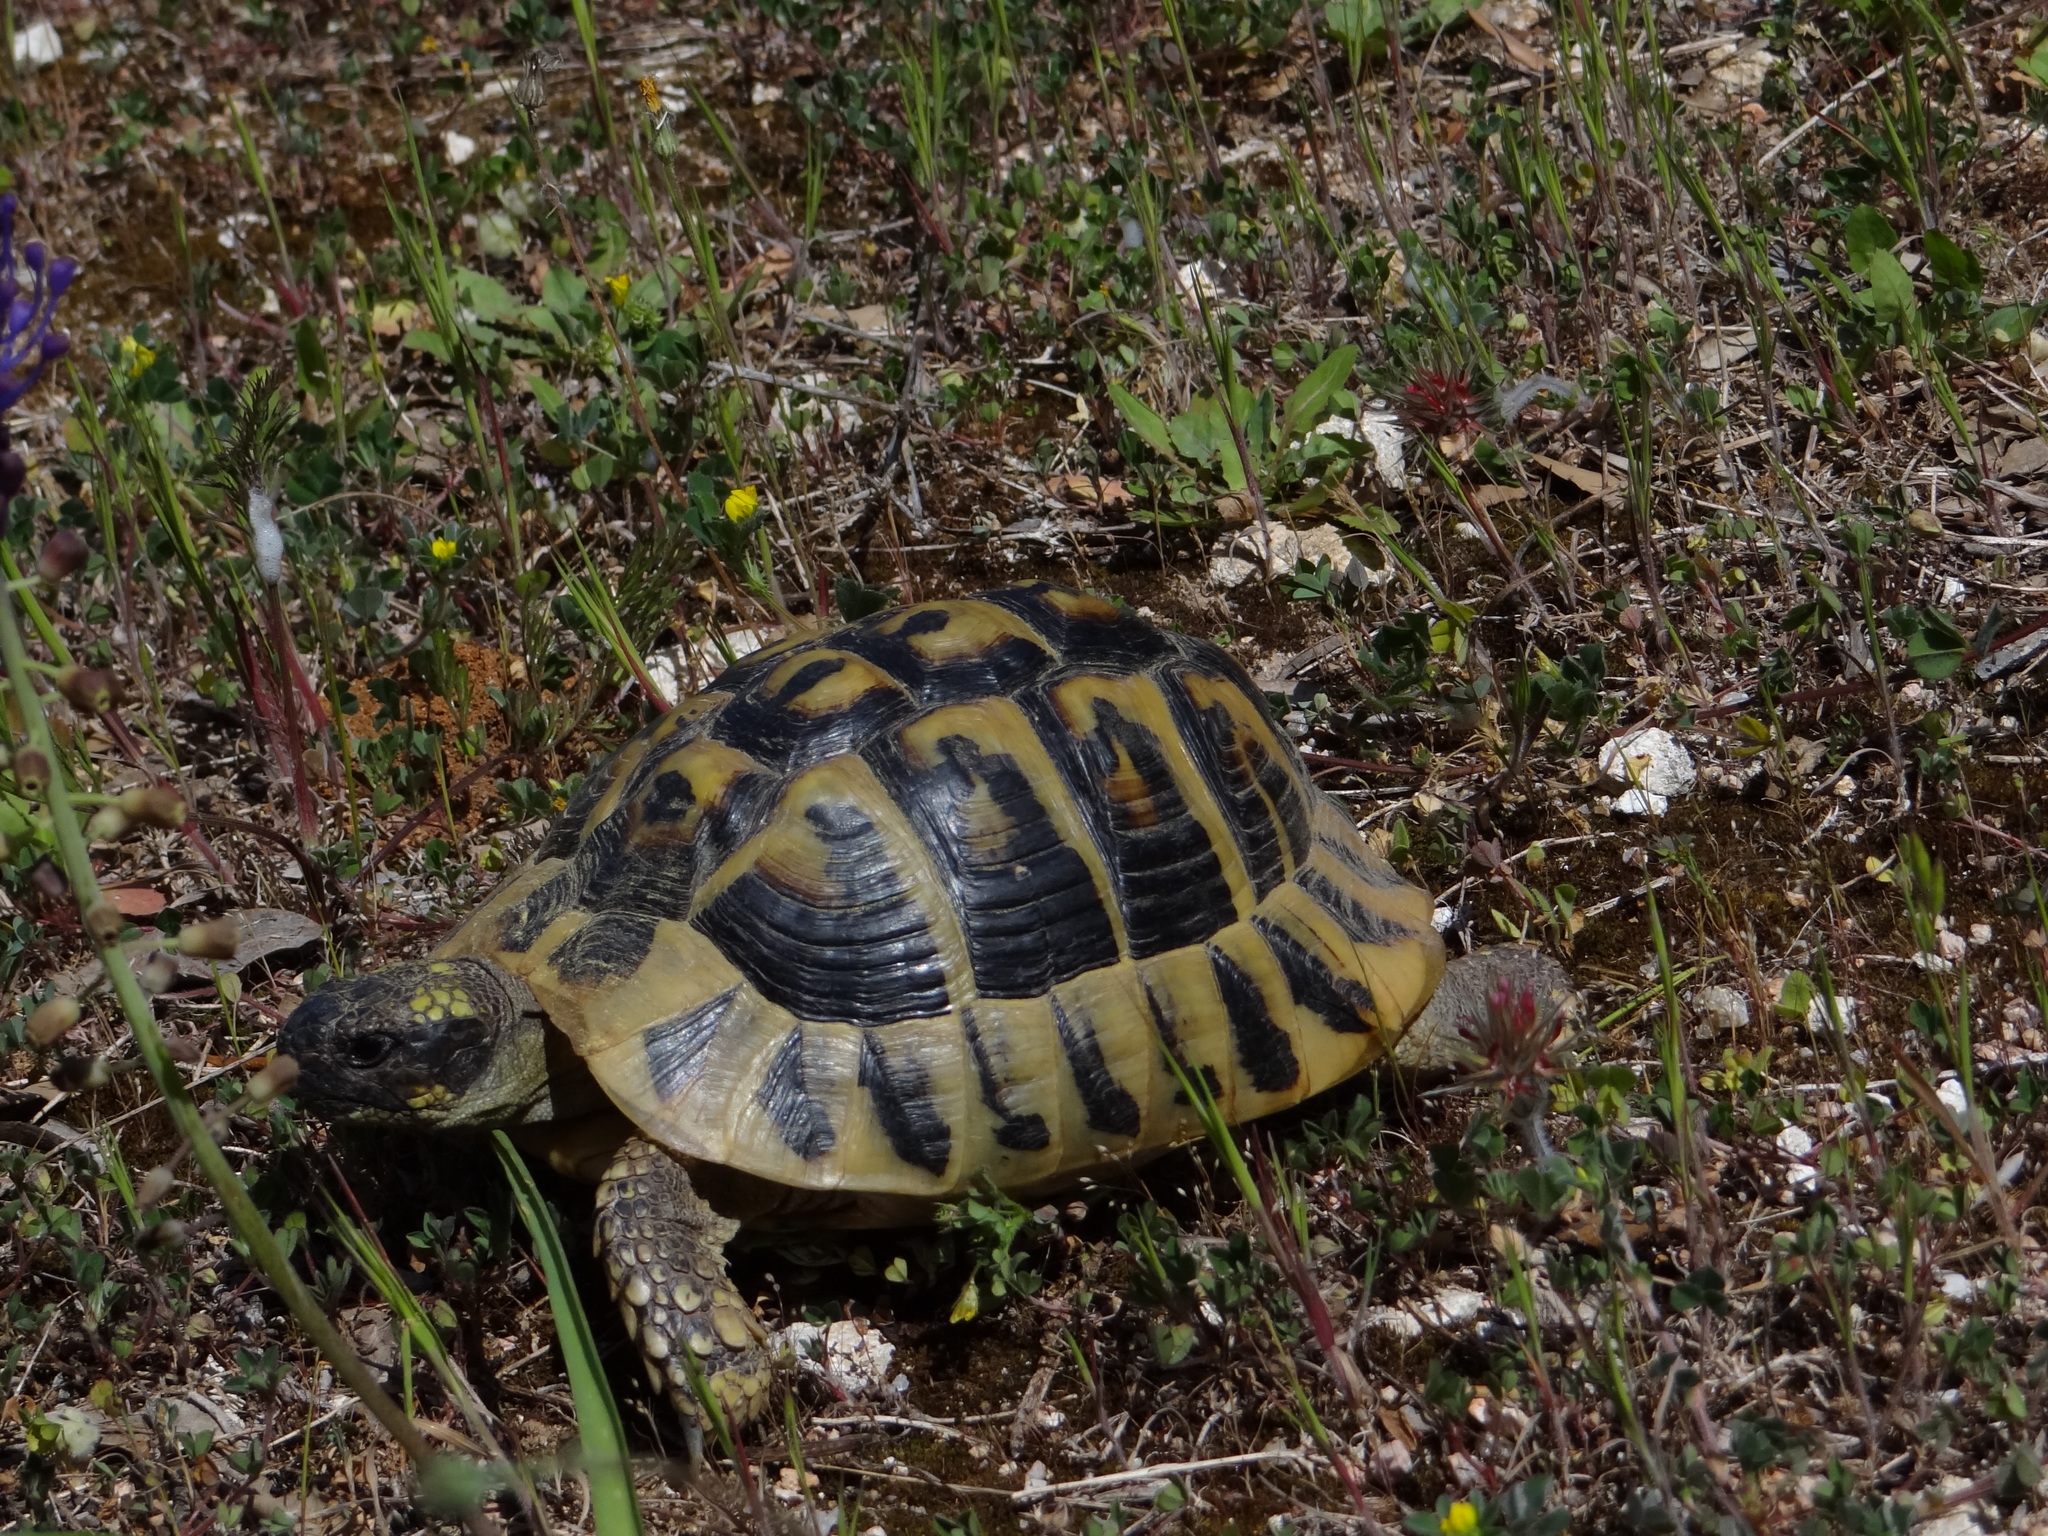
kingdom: Animalia
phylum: Chordata
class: Testudines
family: Testudinidae
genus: Testudo
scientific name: Testudo hermanni
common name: Hermann's tortoise
